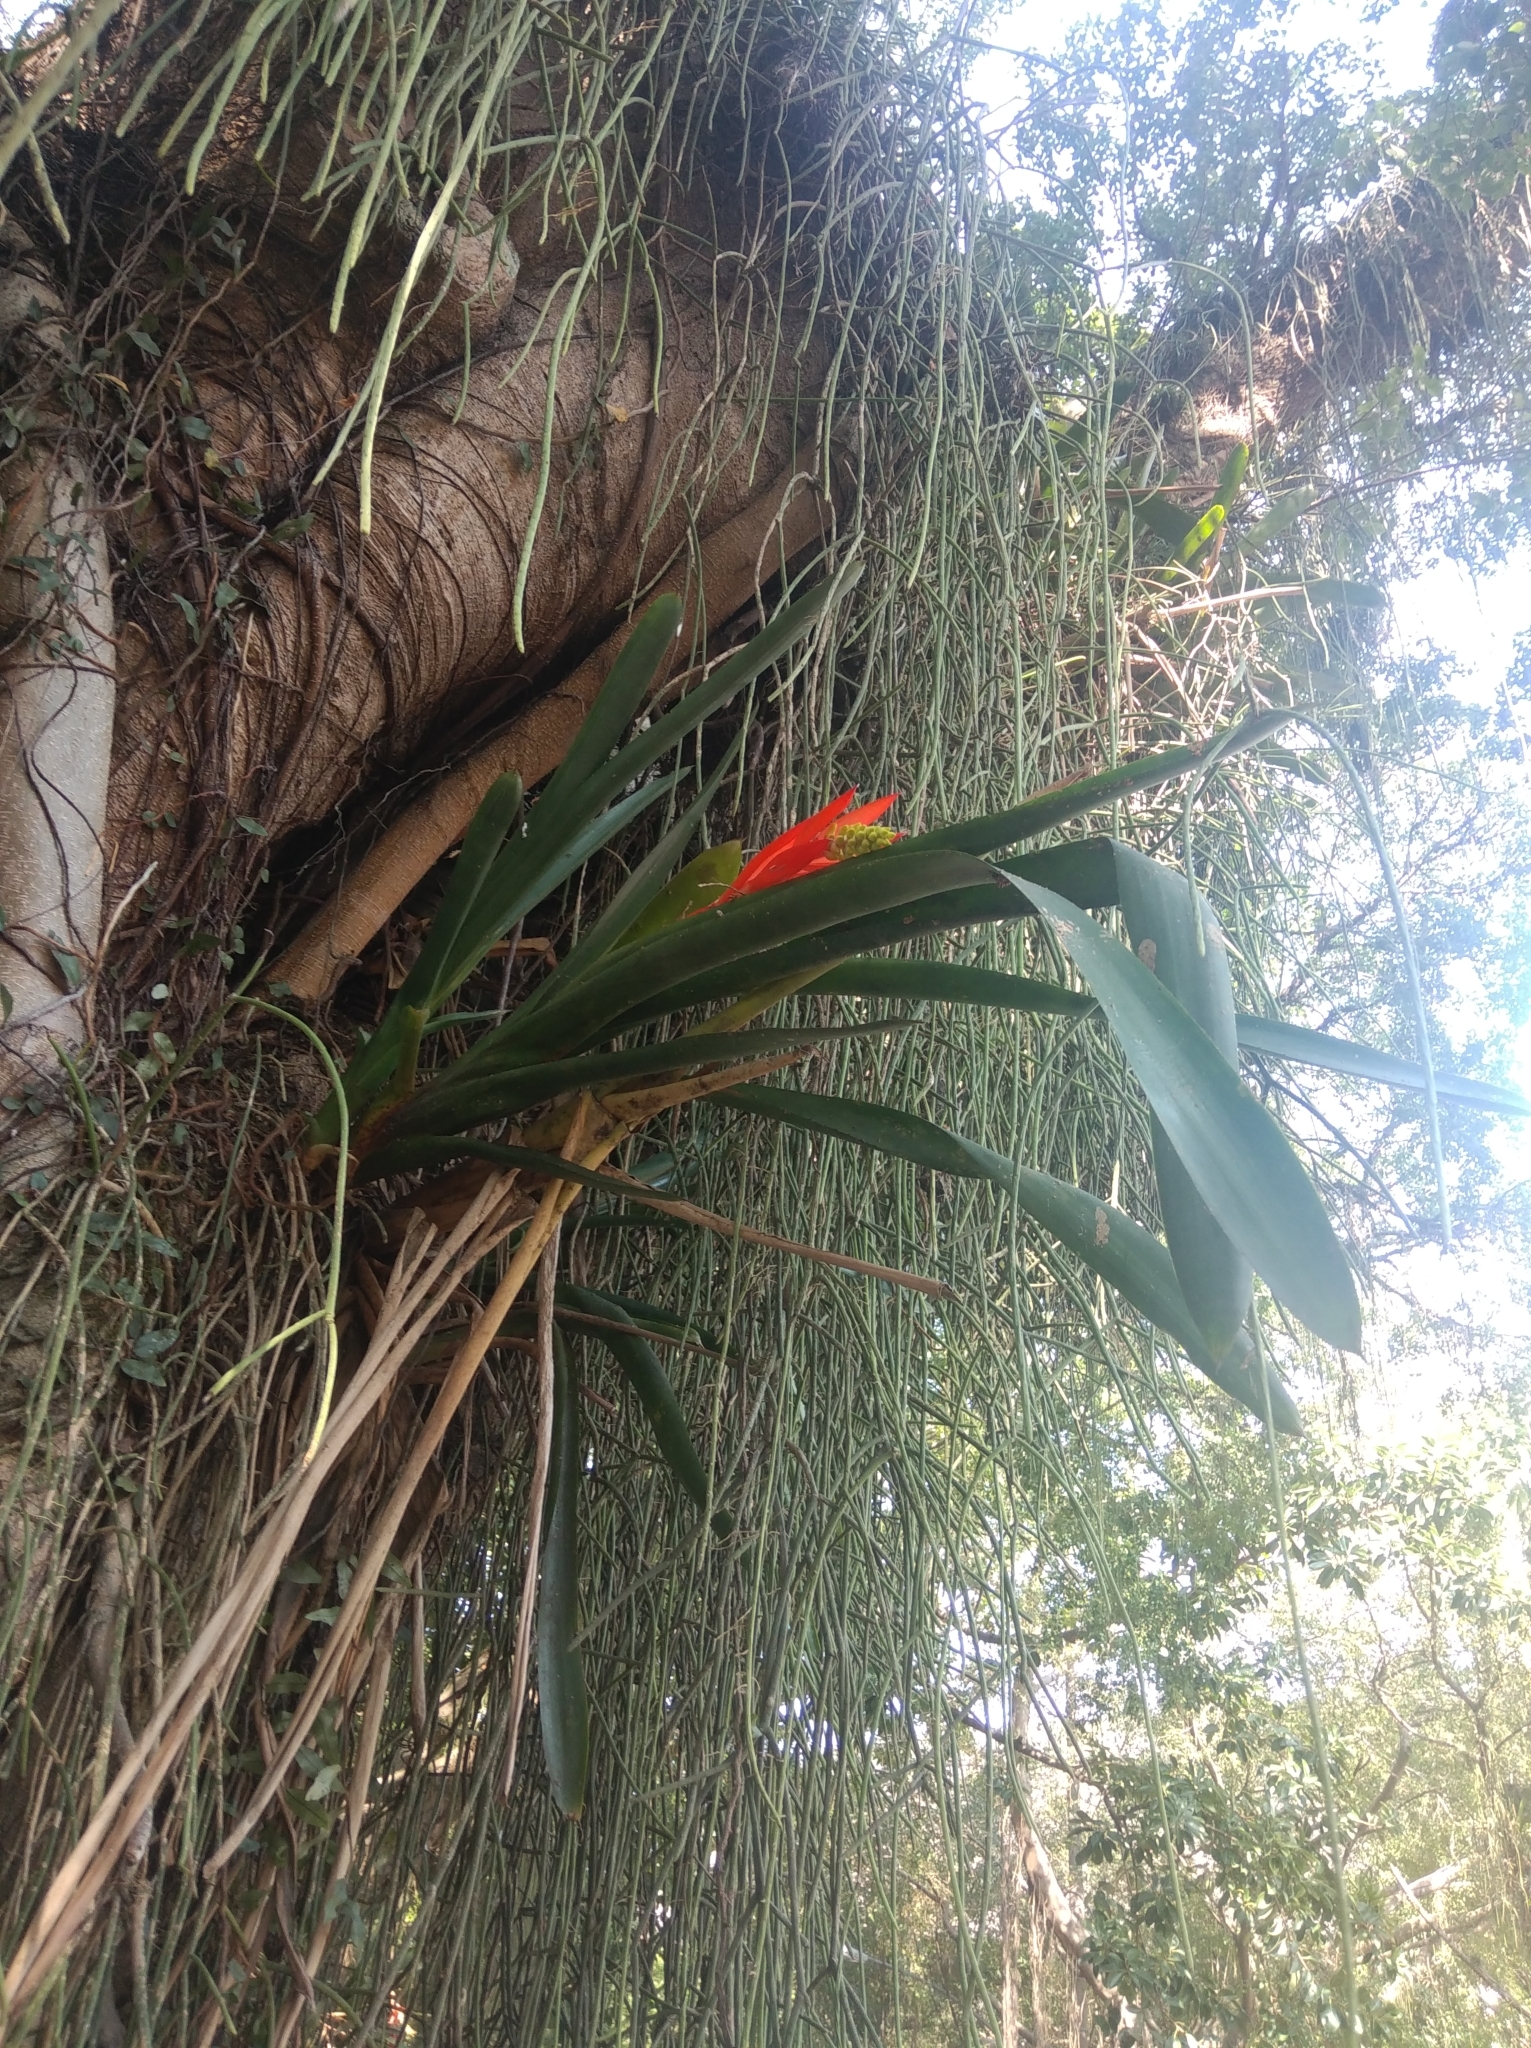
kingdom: Plantae
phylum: Tracheophyta
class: Liliopsida
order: Poales
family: Bromeliaceae
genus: Aechmea
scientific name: Aechmea nudicaulis
